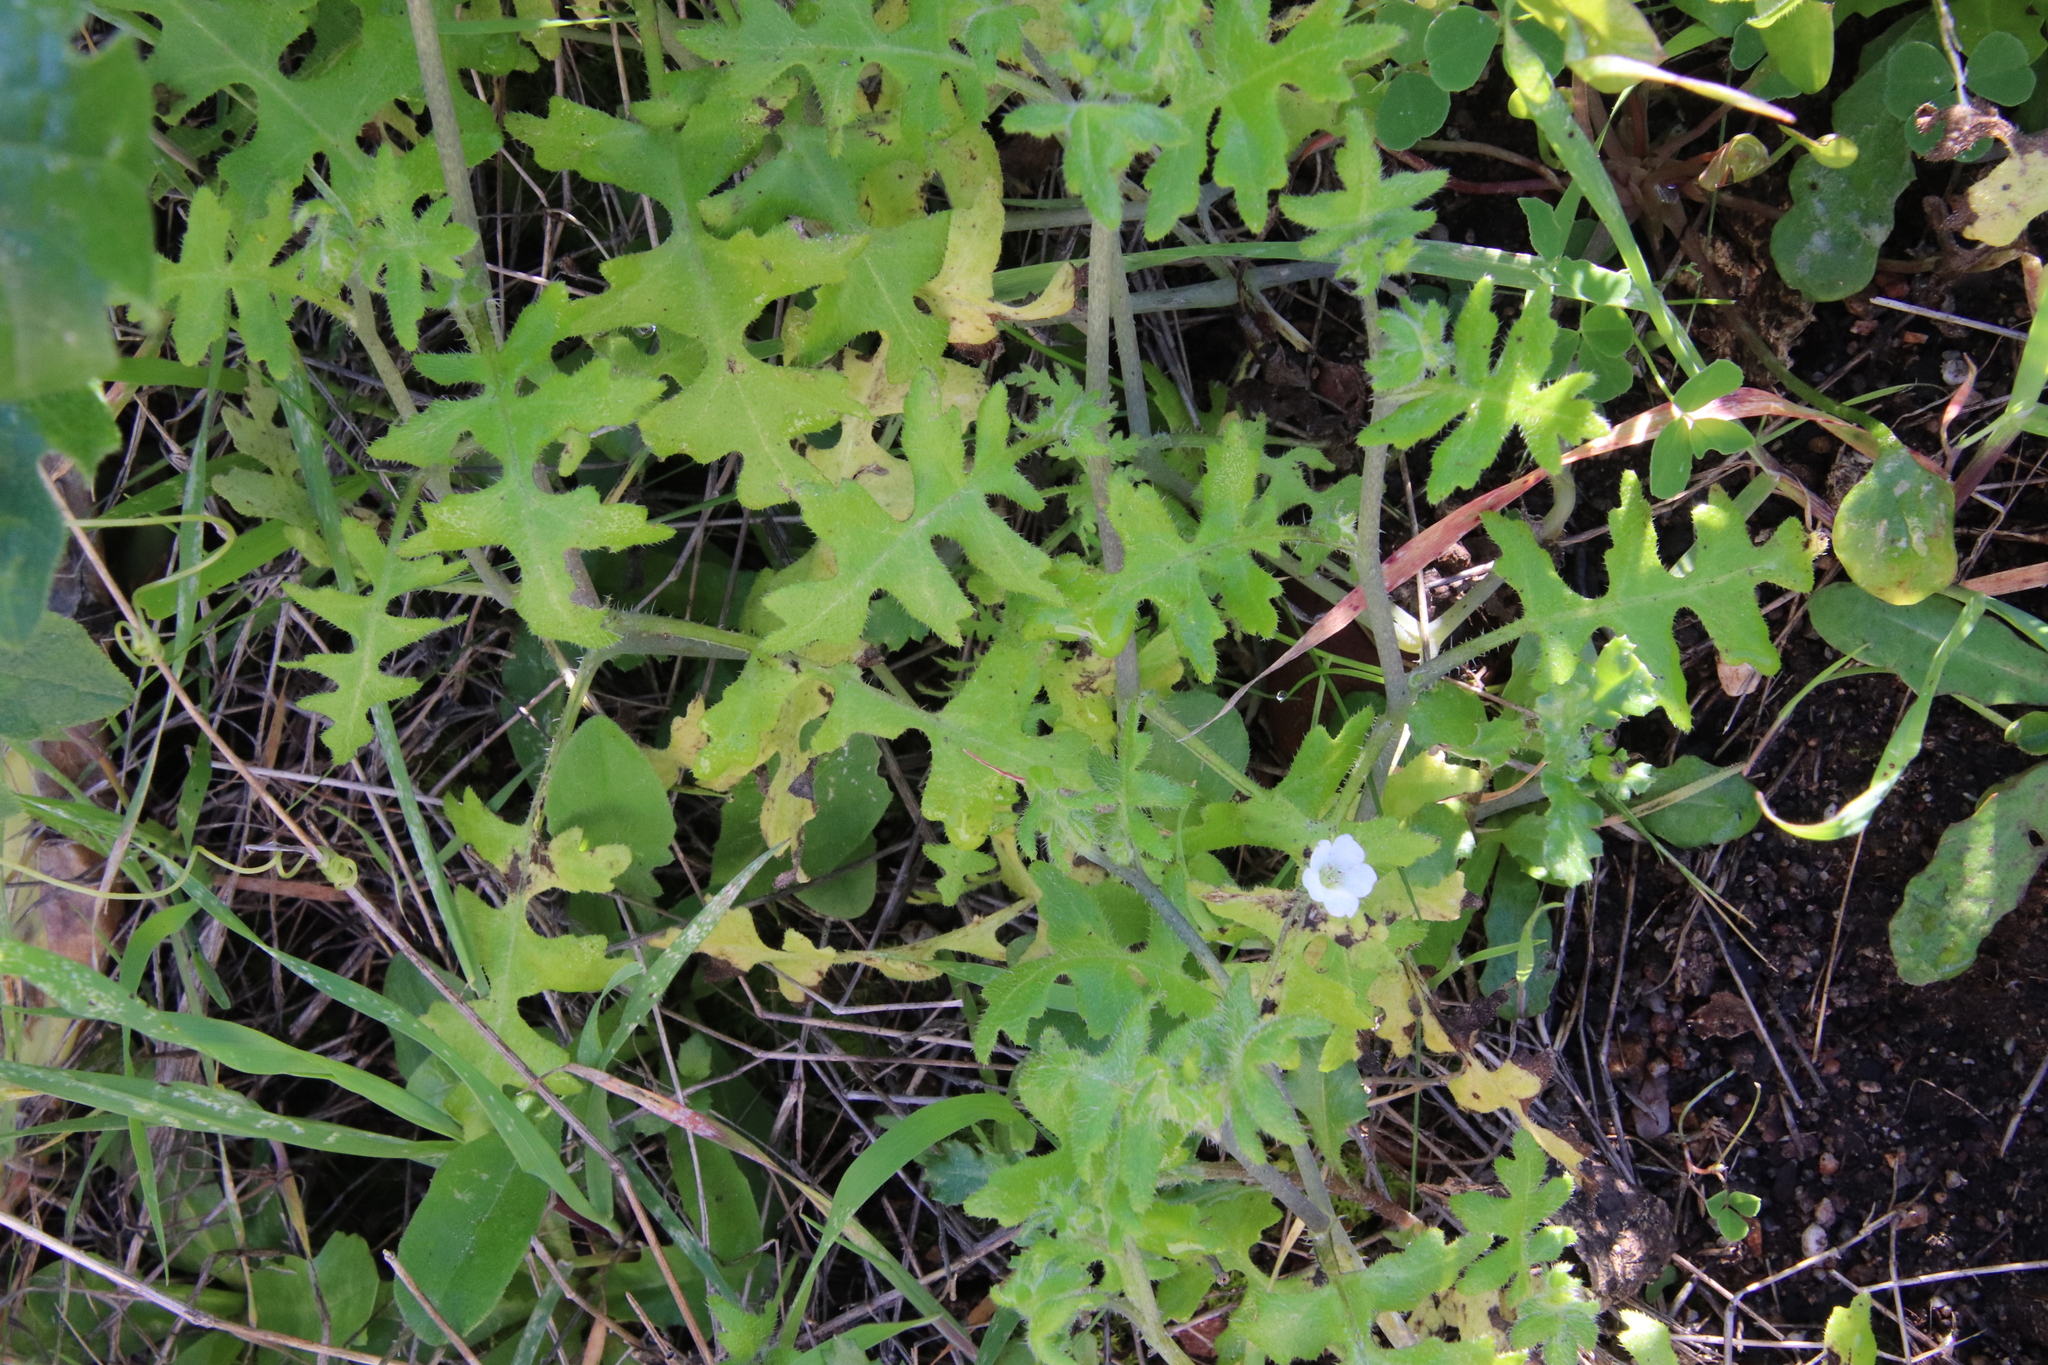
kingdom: Plantae
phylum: Tracheophyta
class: Magnoliopsida
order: Boraginales
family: Hydrophyllaceae
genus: Pholistoma
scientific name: Pholistoma racemosum
